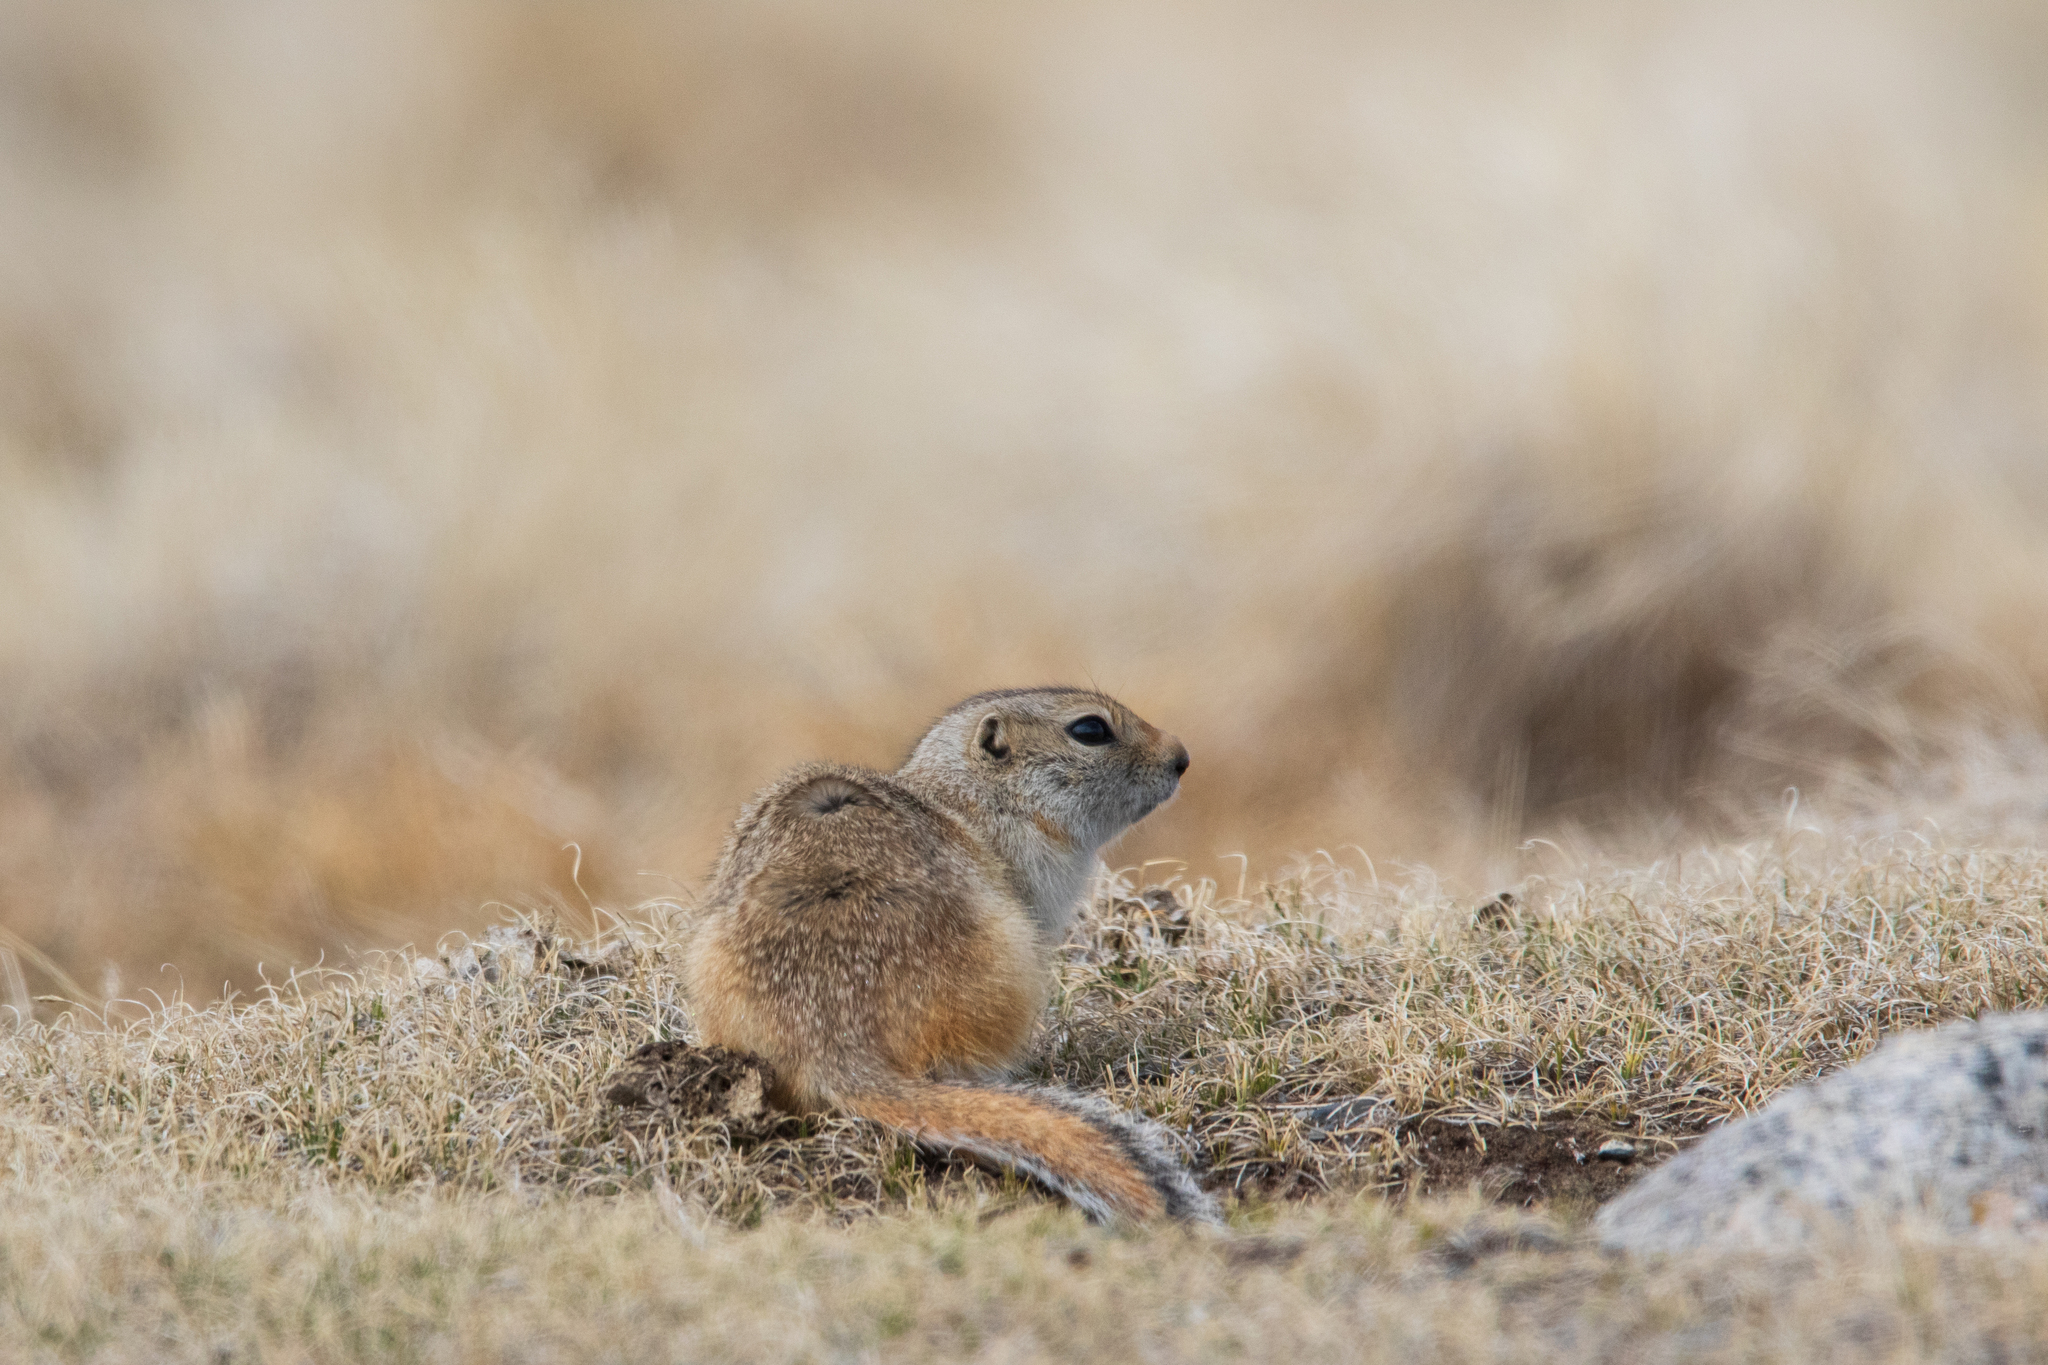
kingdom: Animalia
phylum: Chordata
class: Mammalia
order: Rodentia
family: Sciuridae
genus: Urocitellus
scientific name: Urocitellus undulatus
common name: Long-tailed ground squirrel
